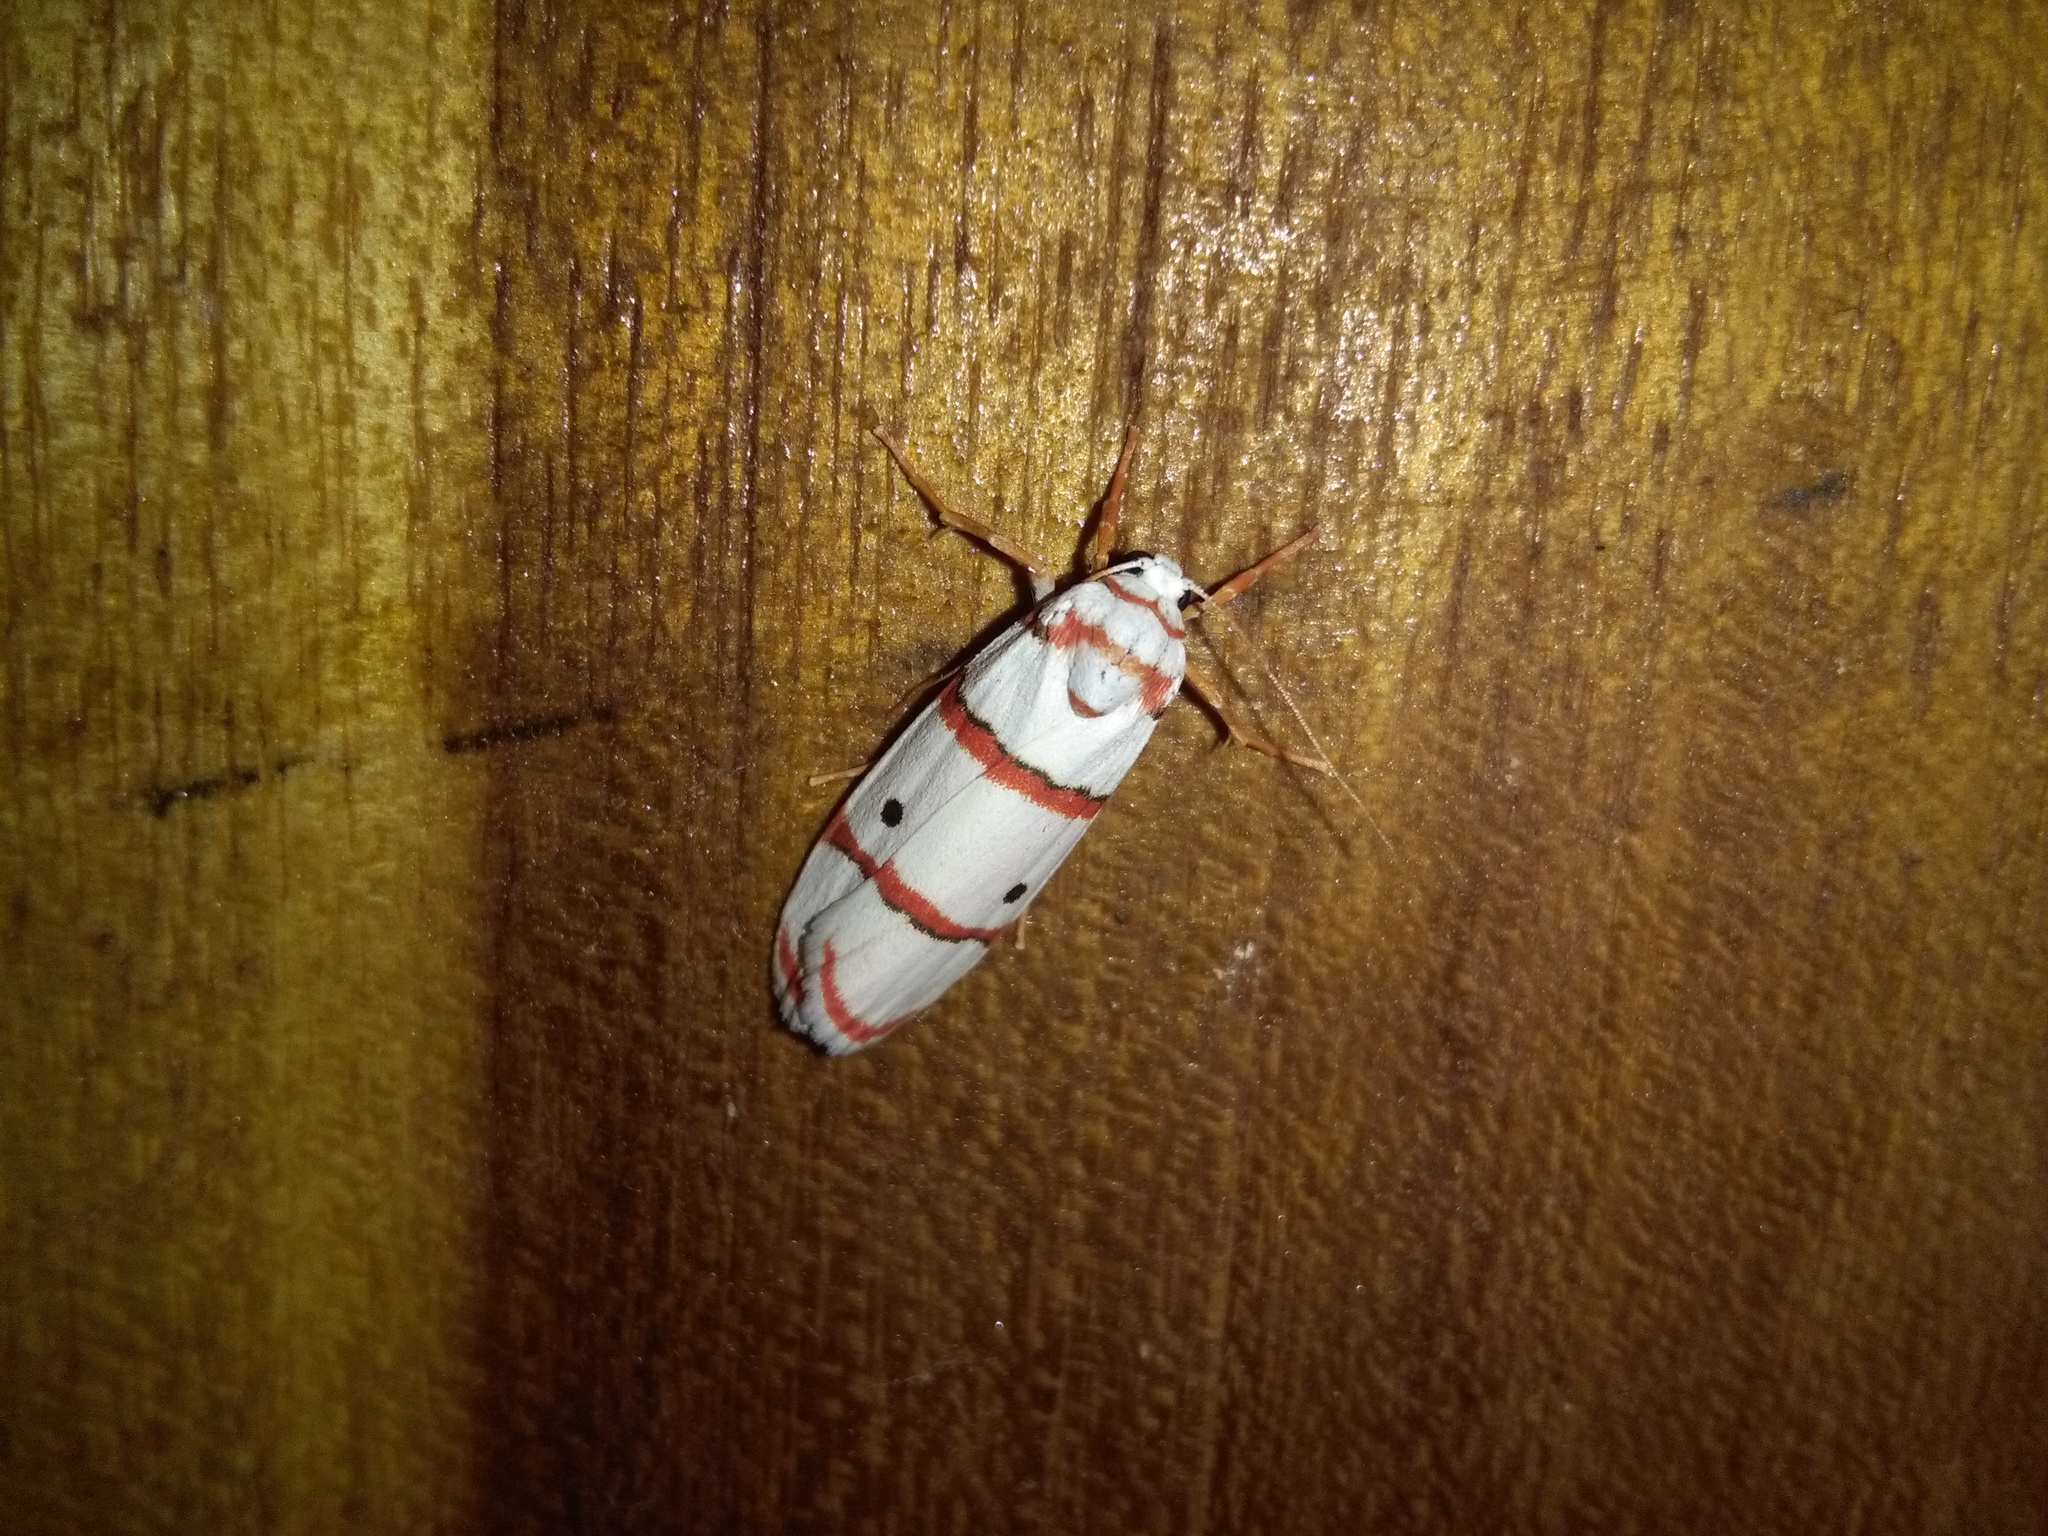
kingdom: Animalia
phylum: Arthropoda
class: Insecta
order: Lepidoptera
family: Erebidae
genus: Cyana
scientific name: Cyana peregrina
